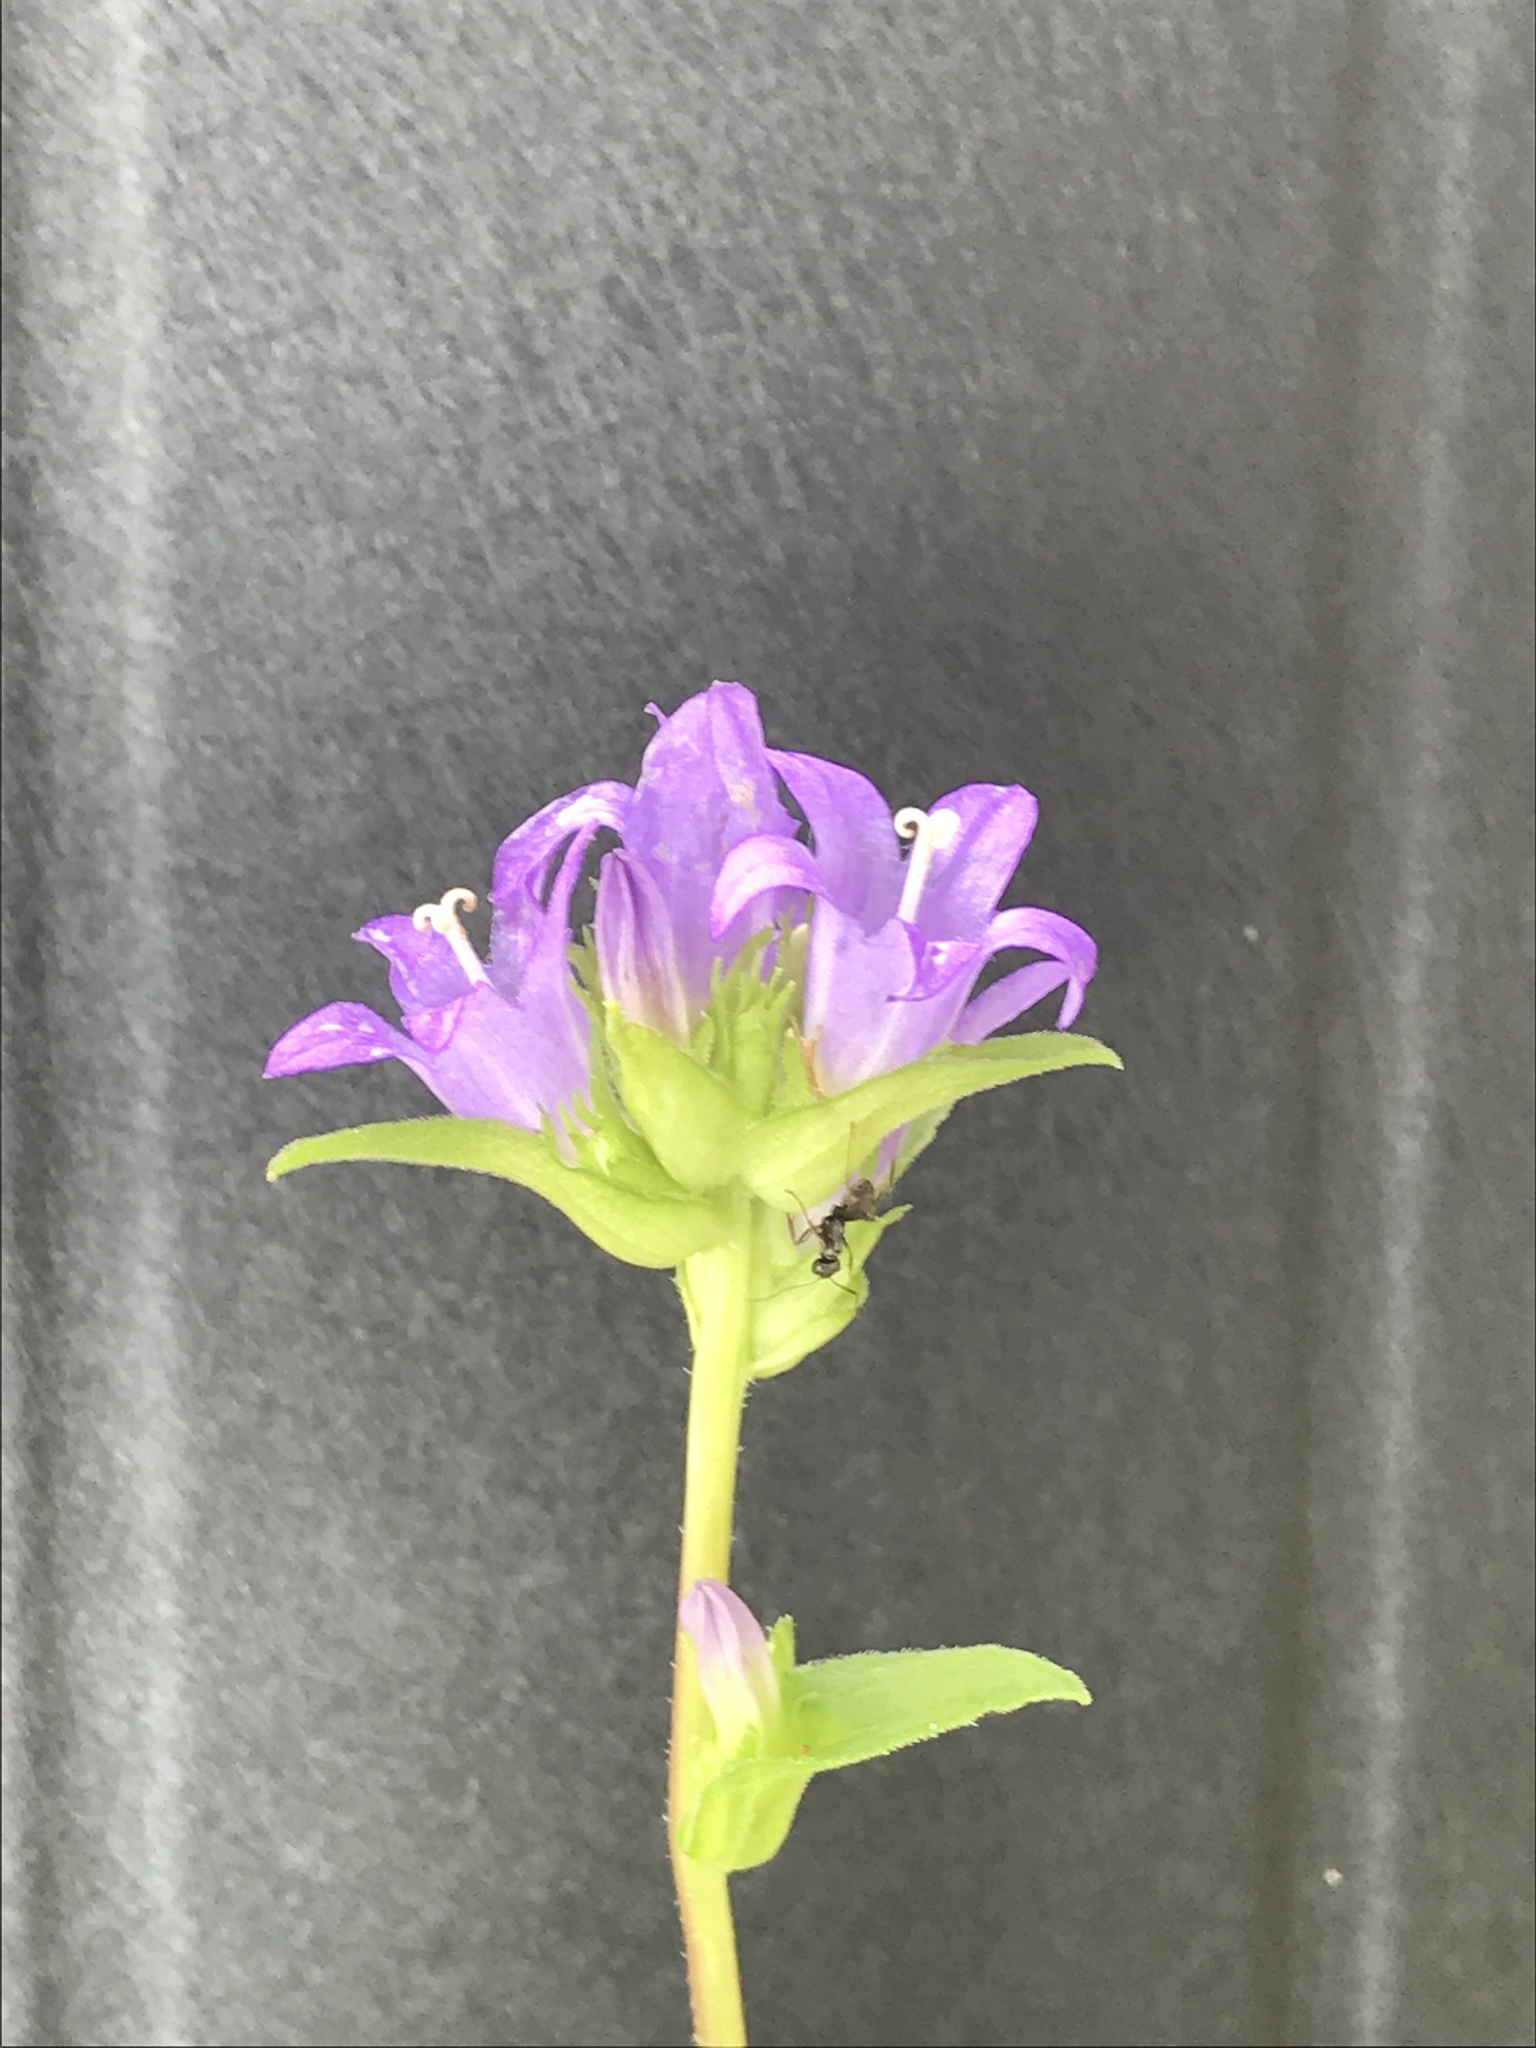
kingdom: Plantae
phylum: Tracheophyta
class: Magnoliopsida
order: Asterales
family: Campanulaceae
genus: Campanula
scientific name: Campanula glomerata
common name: Clustered bellflower
